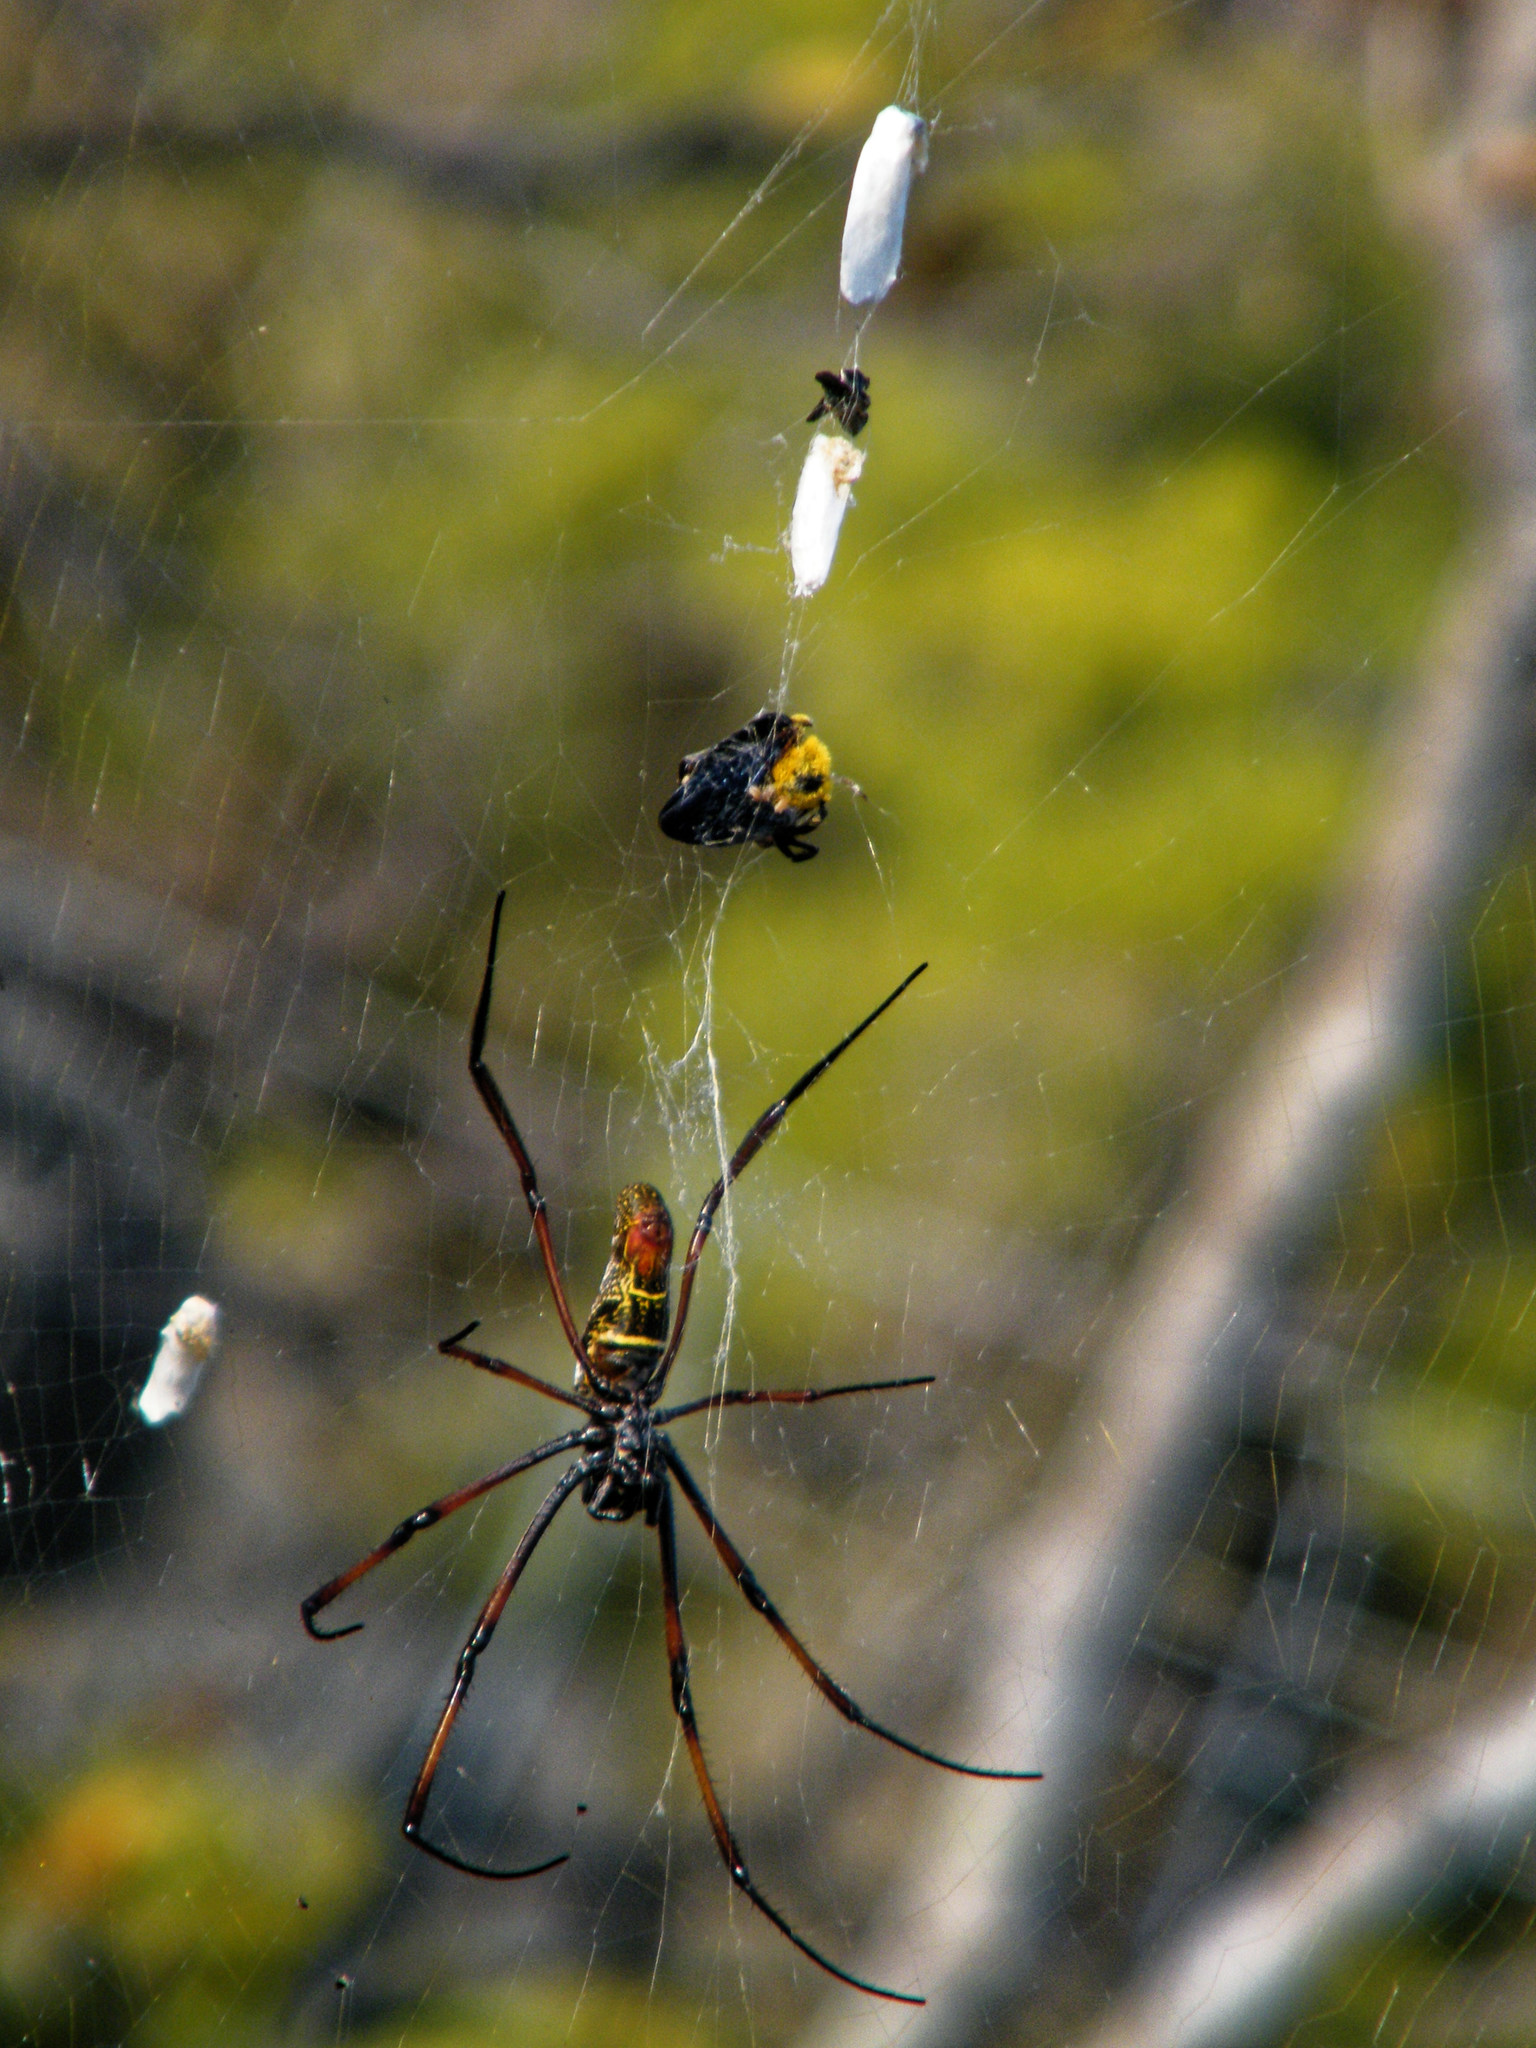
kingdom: Animalia
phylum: Arthropoda
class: Arachnida
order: Araneae
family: Araneidae
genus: Trichonephila
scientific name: Trichonephila inaurata
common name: Red-legged golden orb weaver
